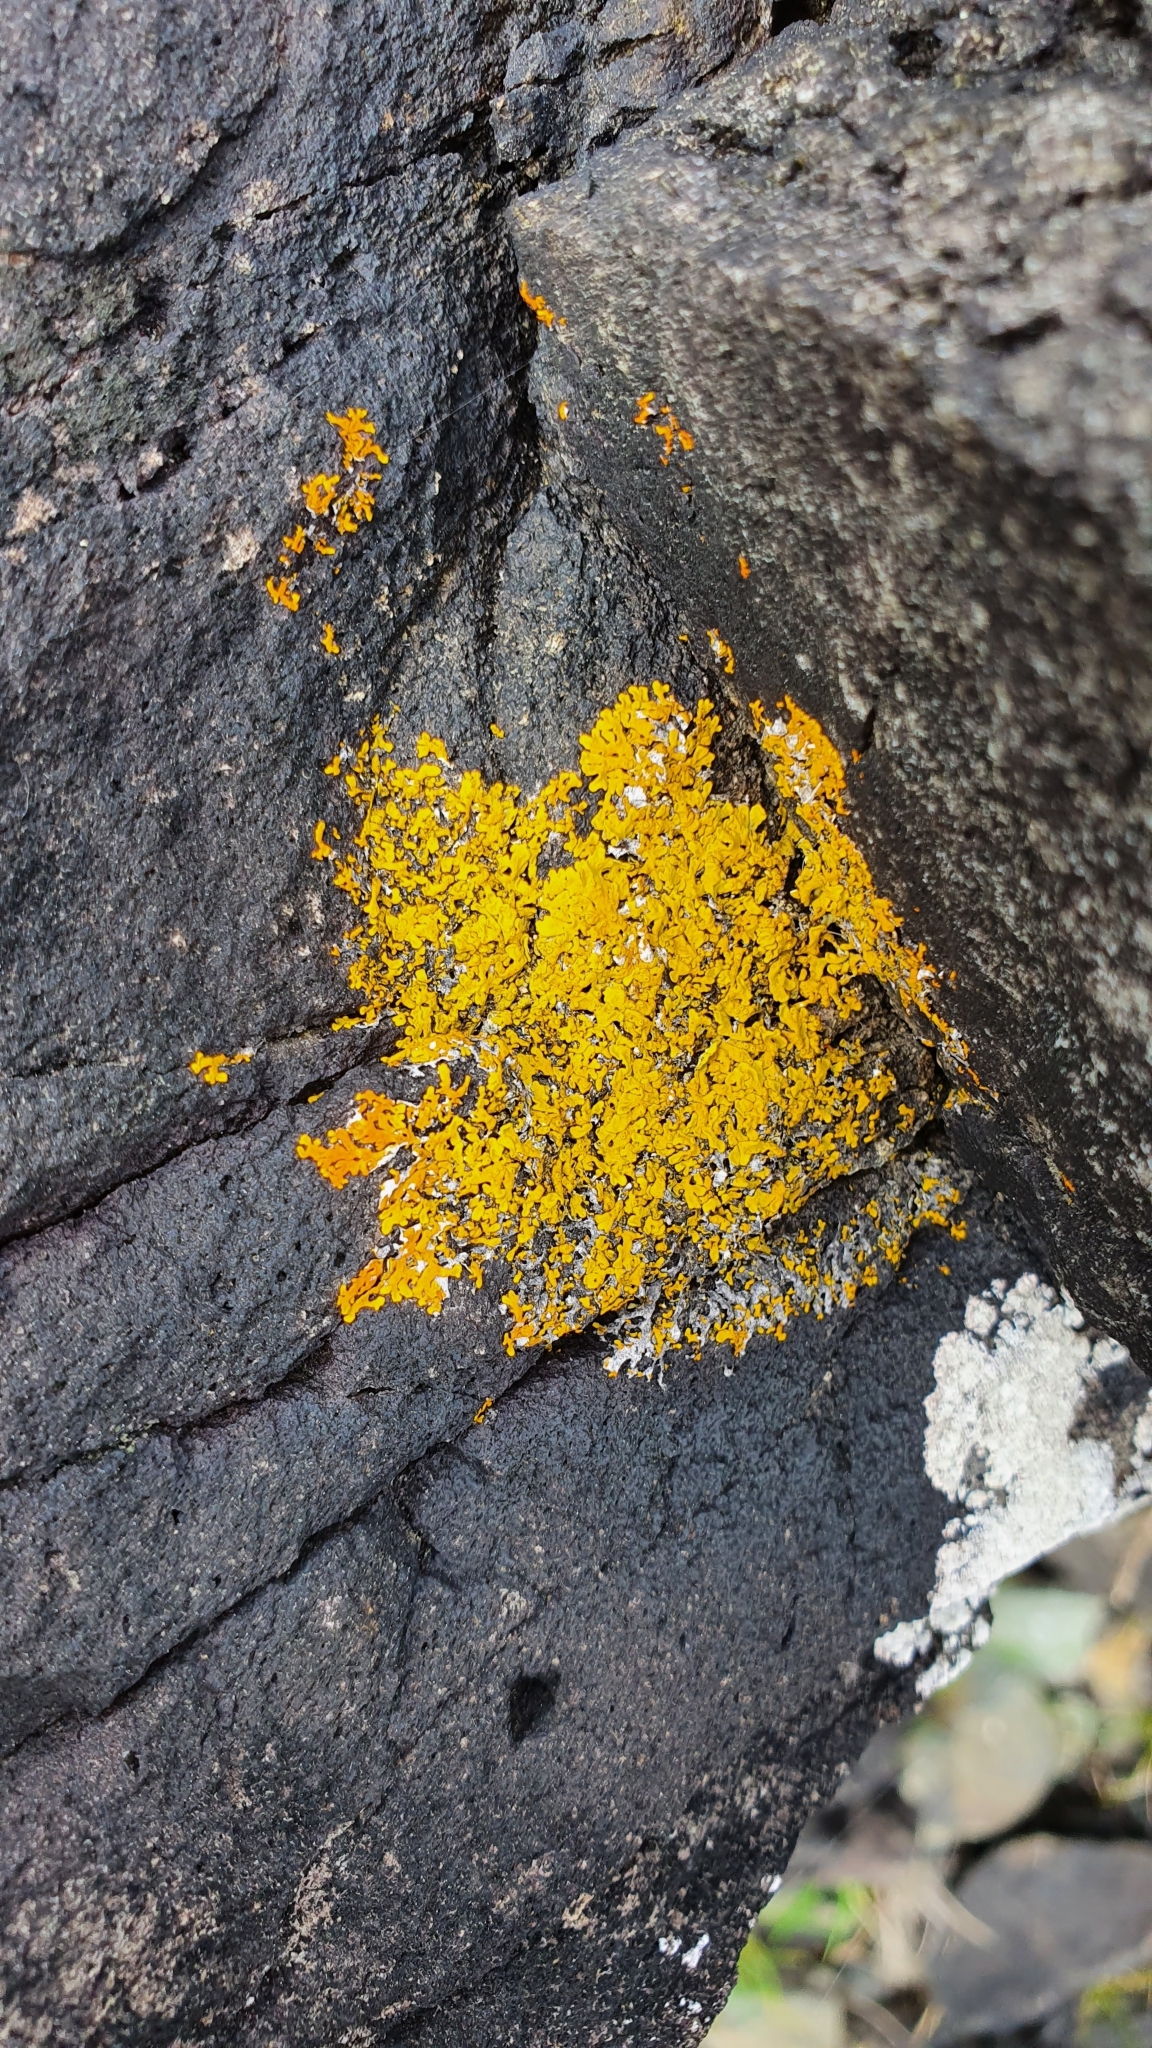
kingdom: Fungi
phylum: Ascomycota
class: Lecanoromycetes
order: Teloschistales
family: Teloschistaceae
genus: Xanthoria
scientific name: Xanthoria parietina
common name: Common orange lichen
